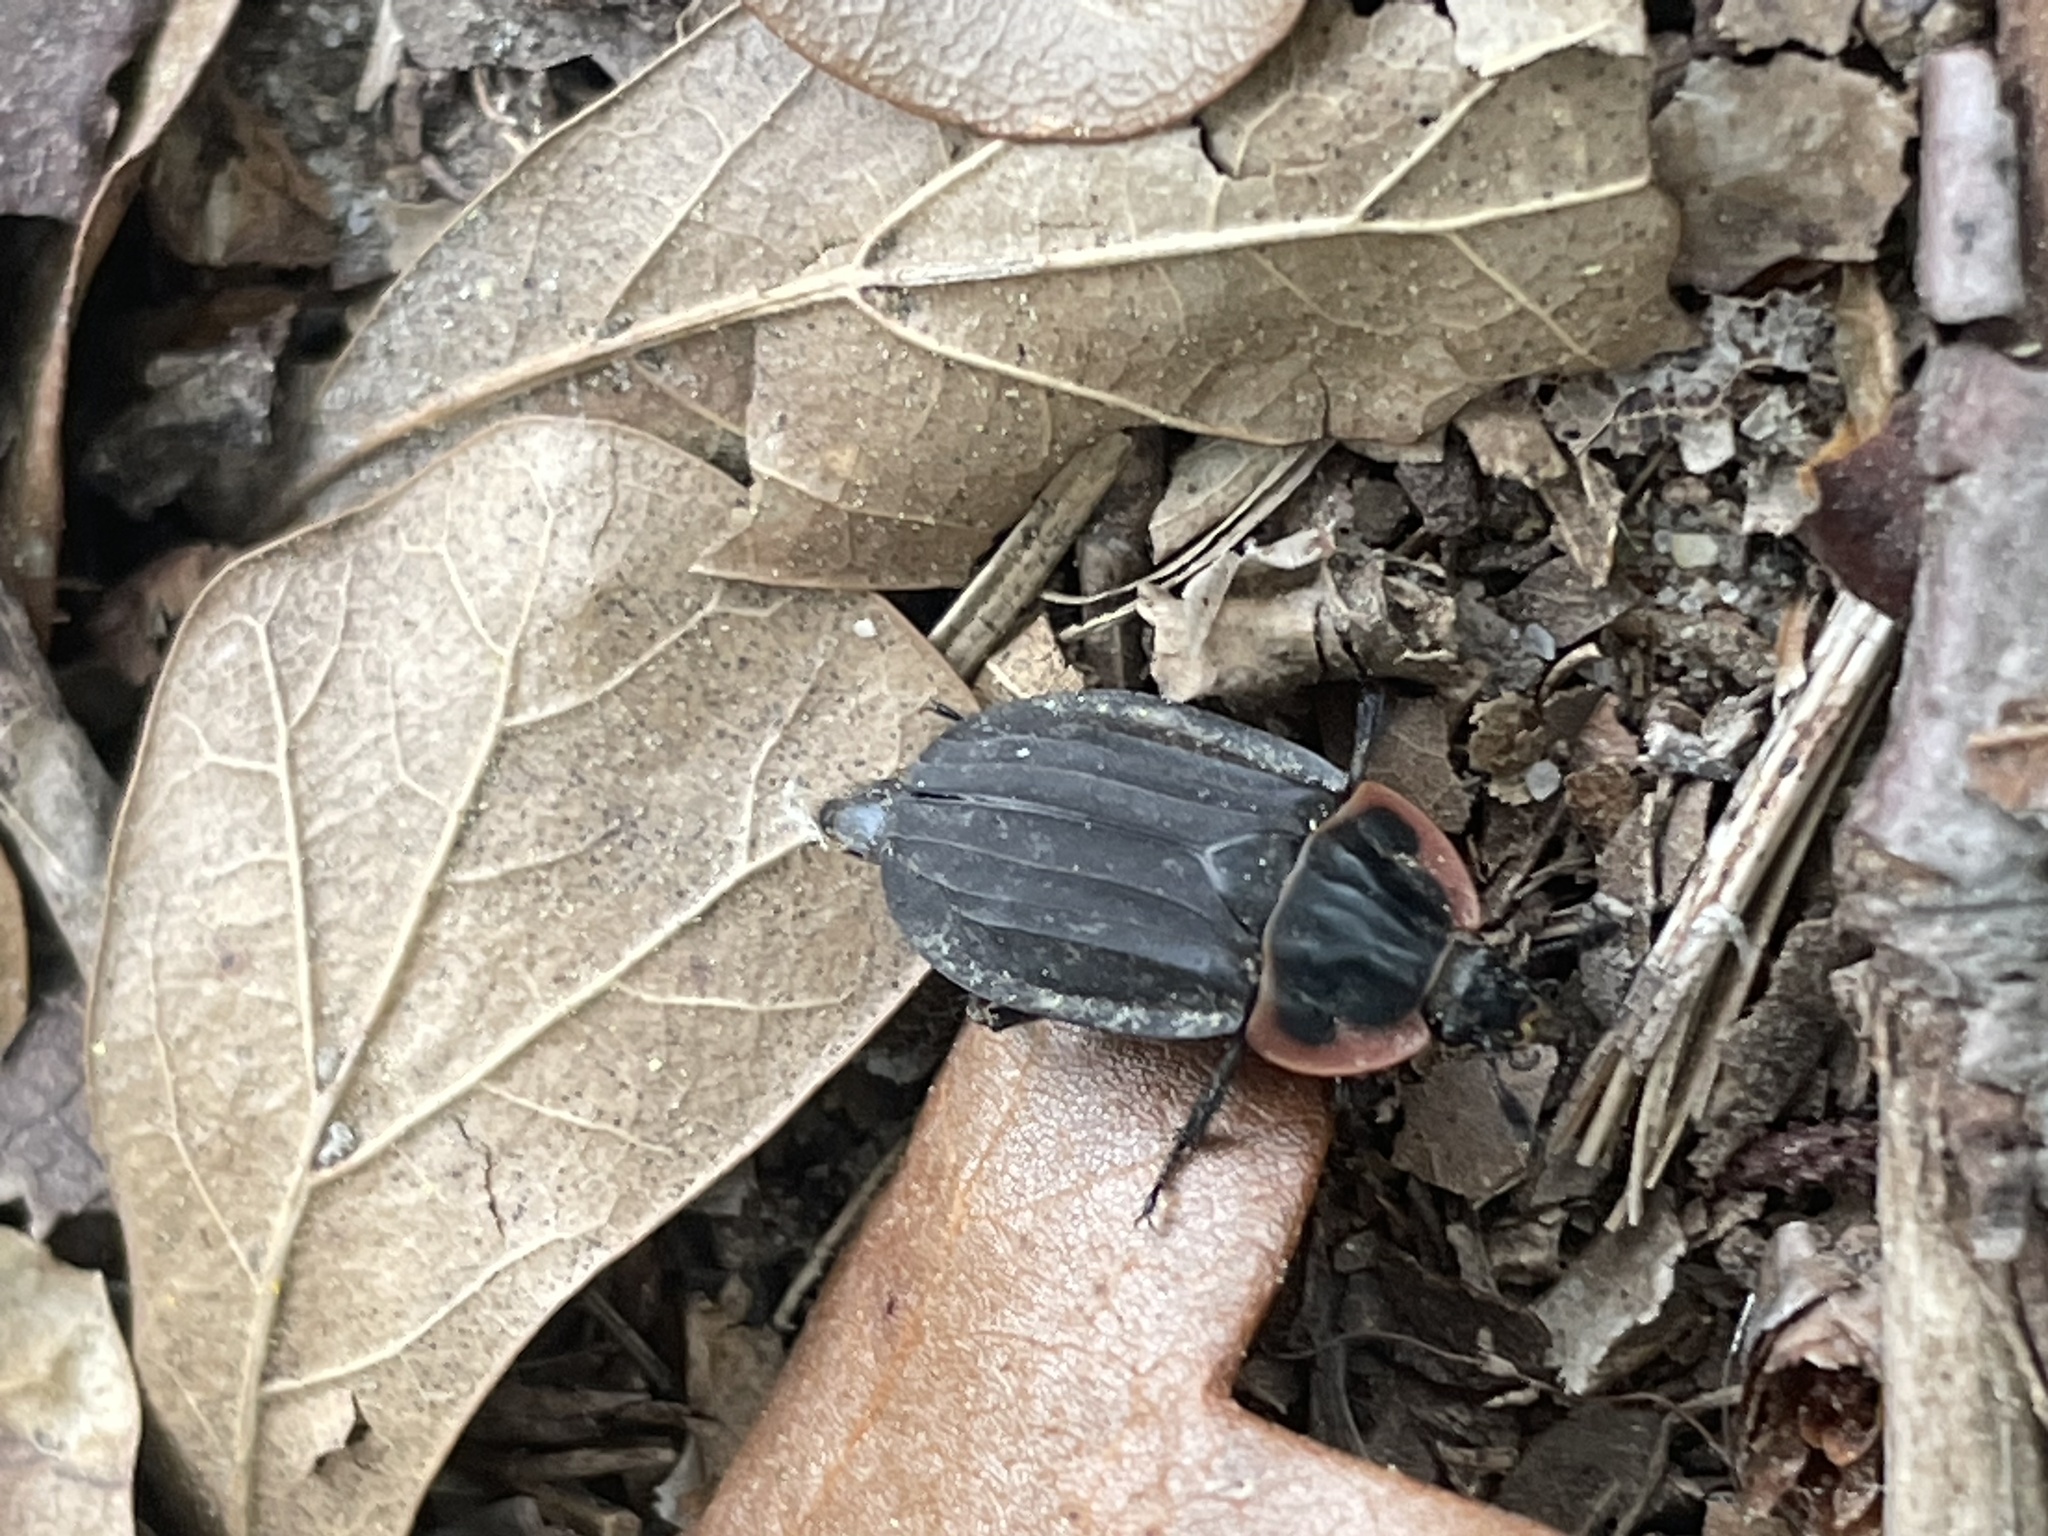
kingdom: Animalia
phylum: Arthropoda
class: Insecta
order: Coleoptera
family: Staphylinidae
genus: Oiceoptoma
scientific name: Oiceoptoma noveboracense
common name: Margined carrion beetle
